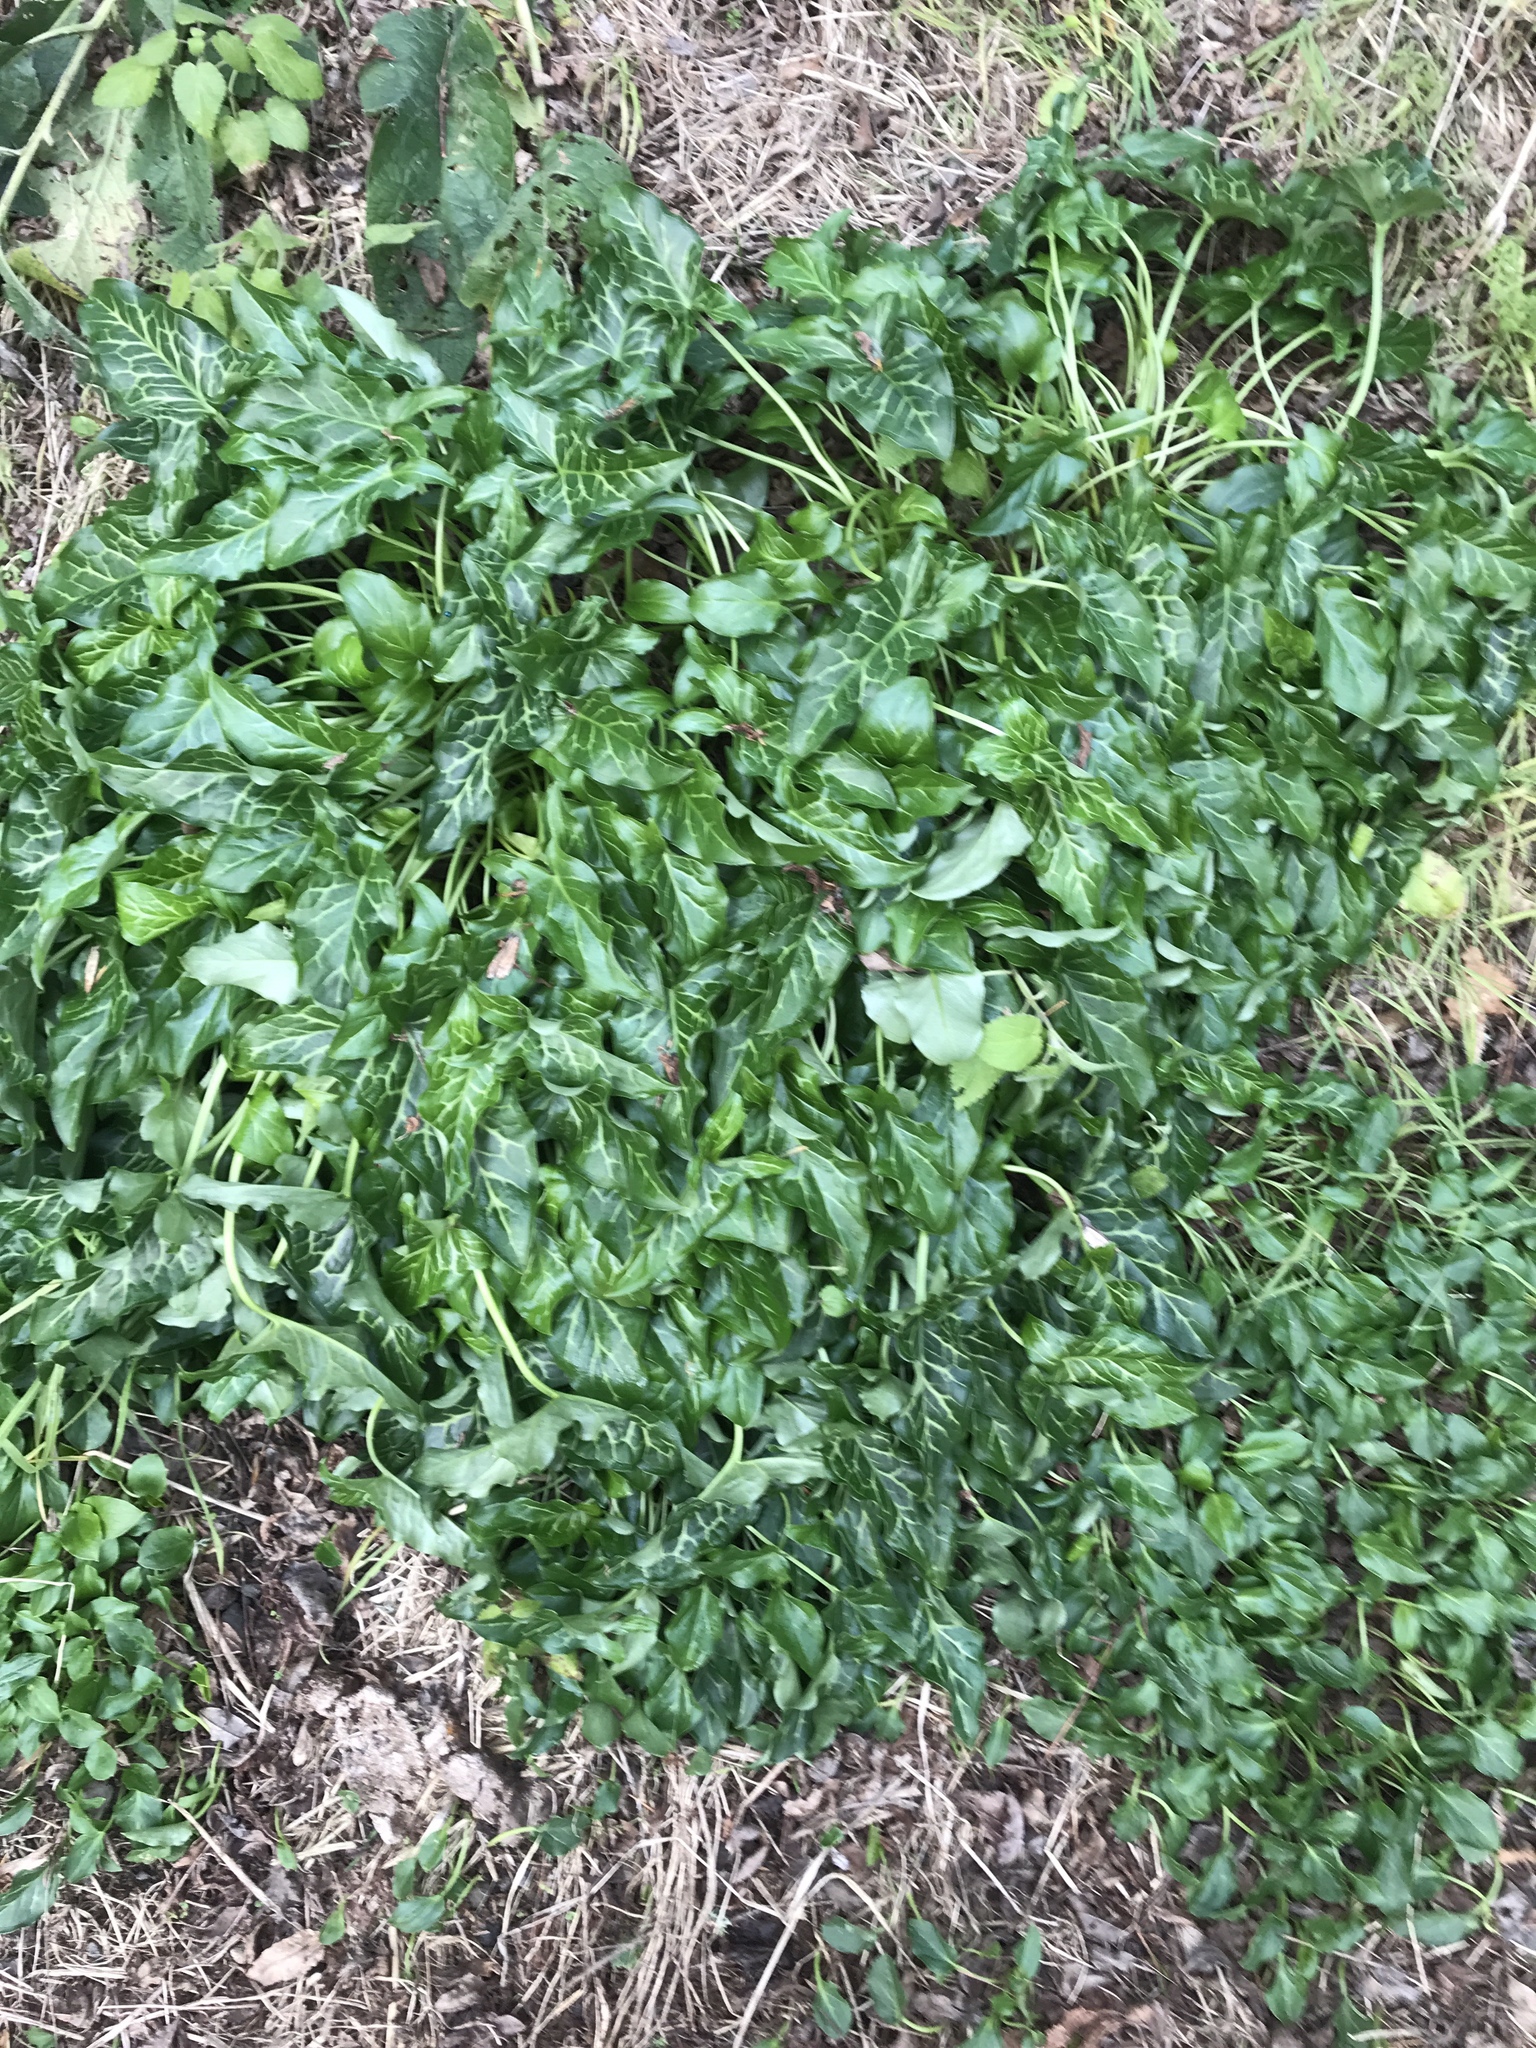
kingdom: Plantae
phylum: Tracheophyta
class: Liliopsida
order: Alismatales
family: Araceae
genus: Arum
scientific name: Arum italicum
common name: Italian lords-and-ladies
